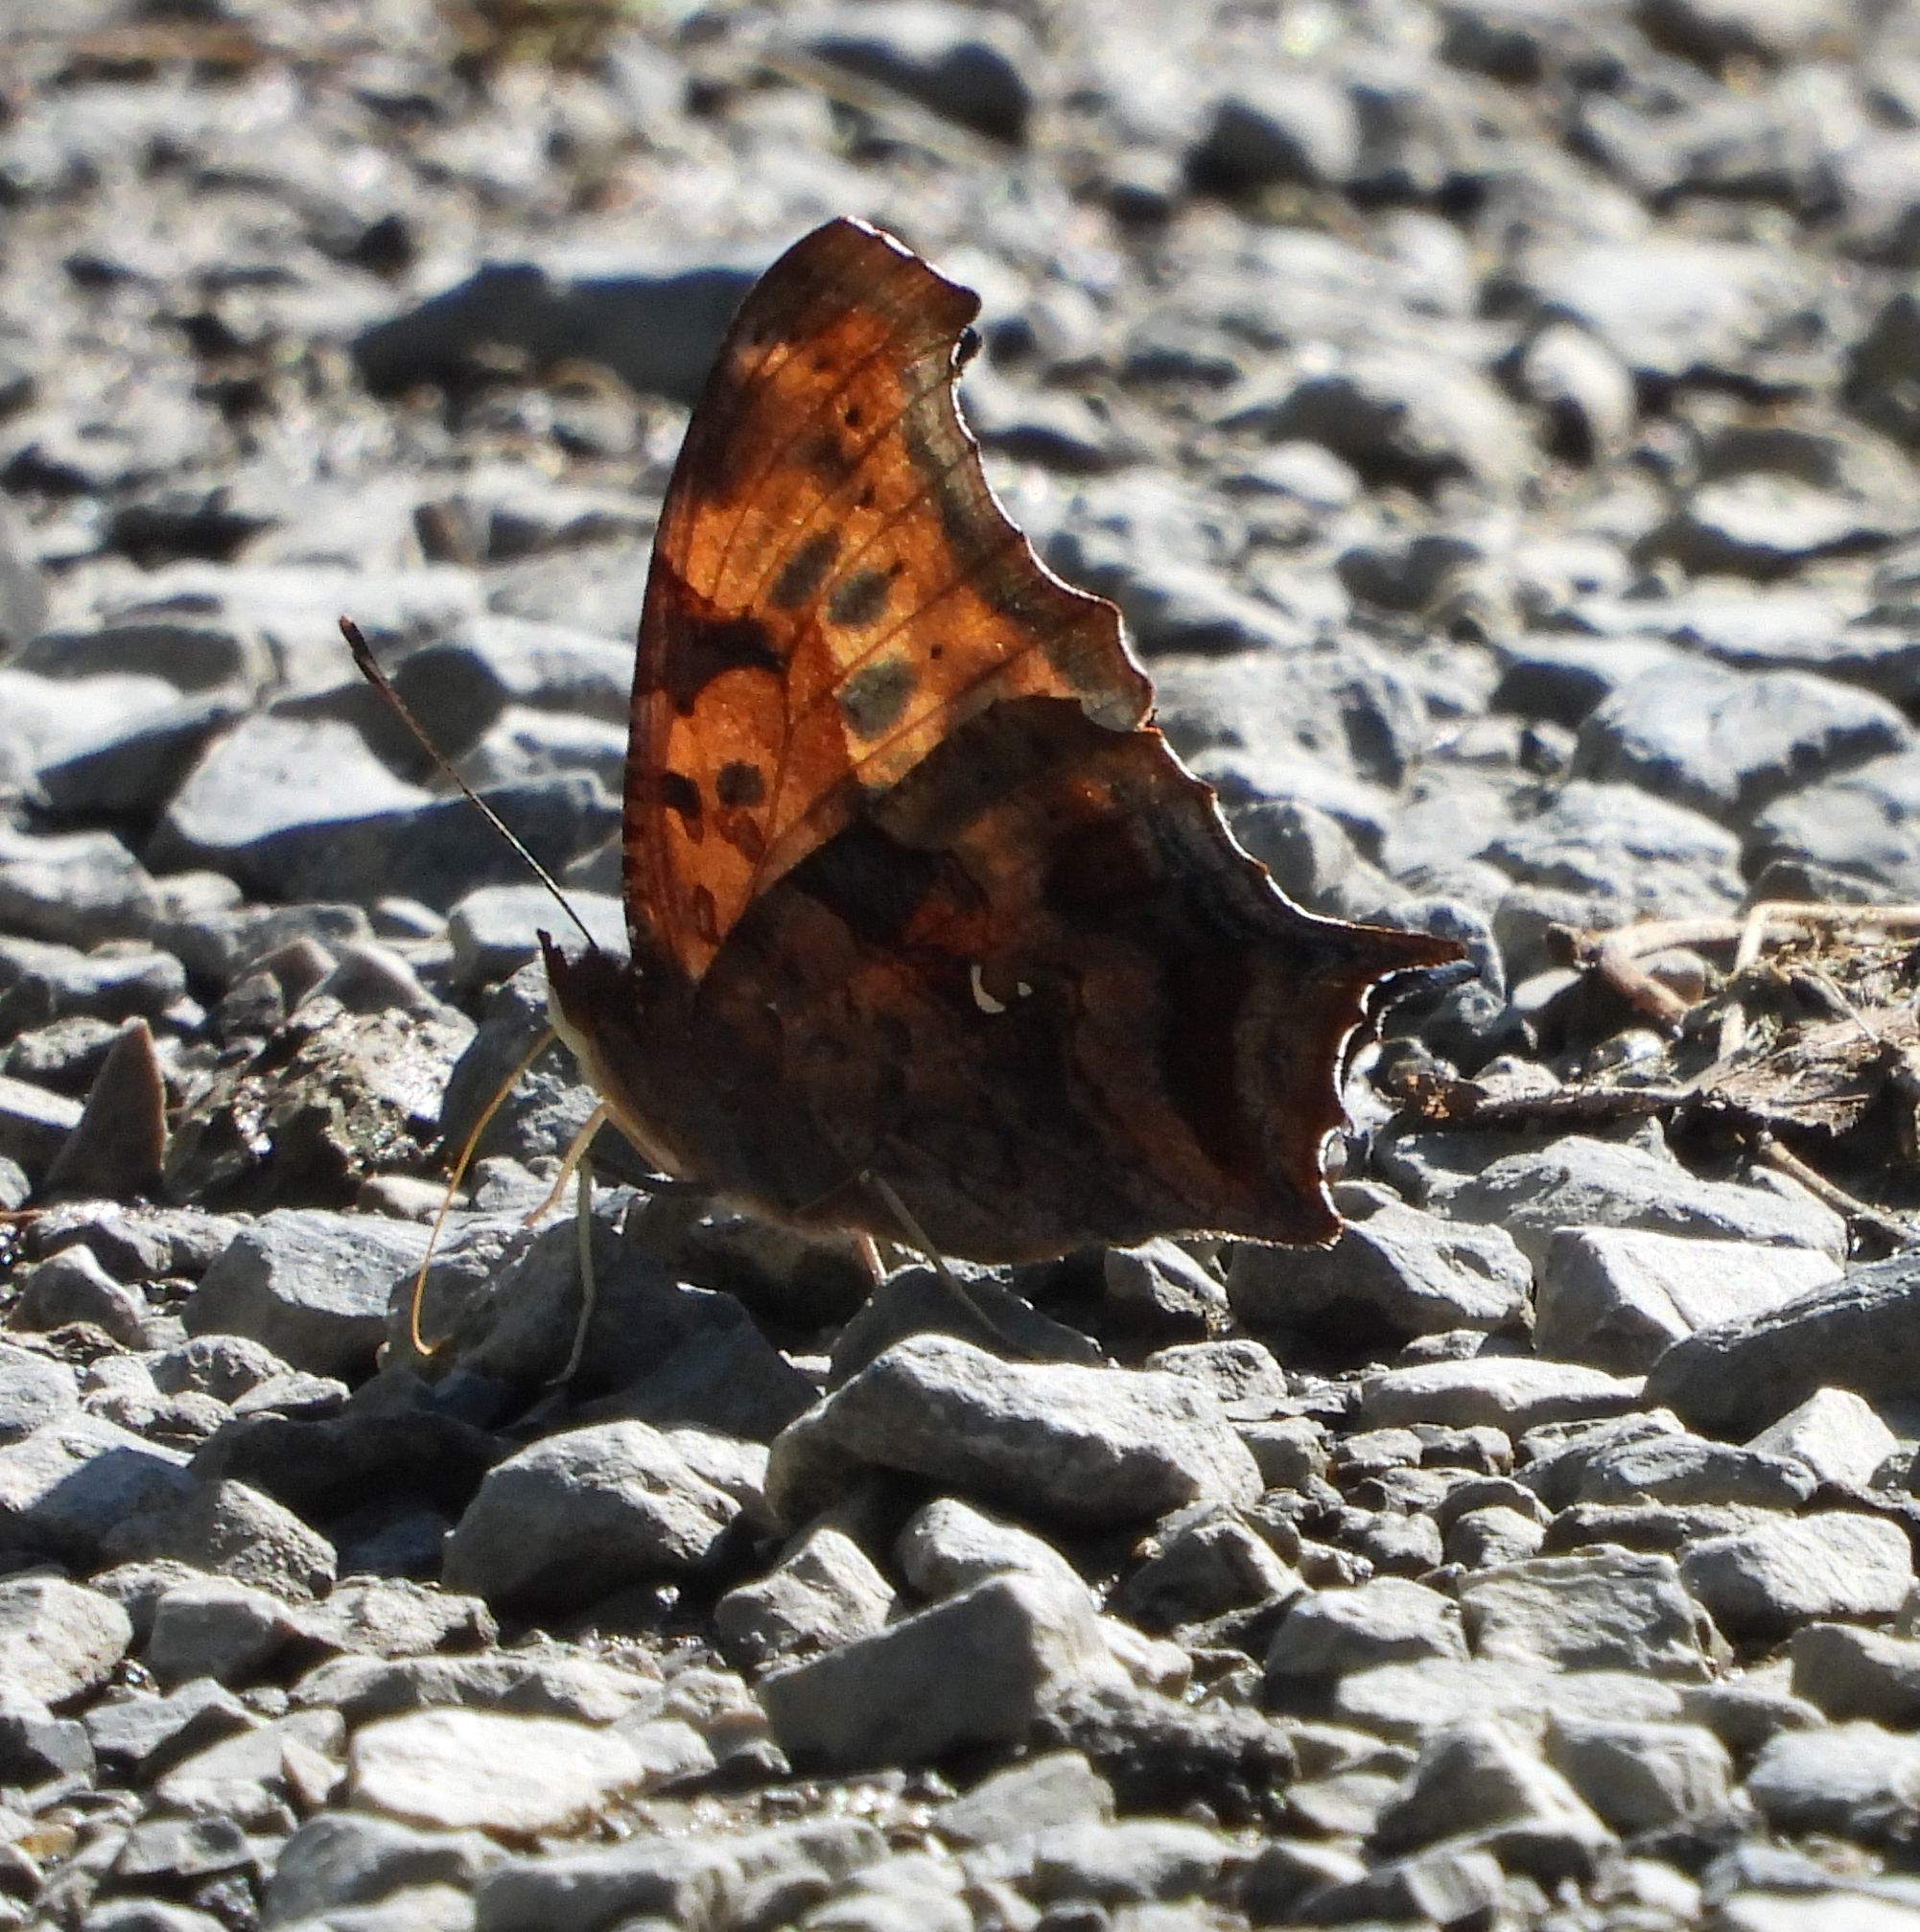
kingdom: Animalia
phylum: Arthropoda
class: Insecta
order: Lepidoptera
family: Nymphalidae
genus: Polygonia
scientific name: Polygonia interrogationis
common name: Question mark
